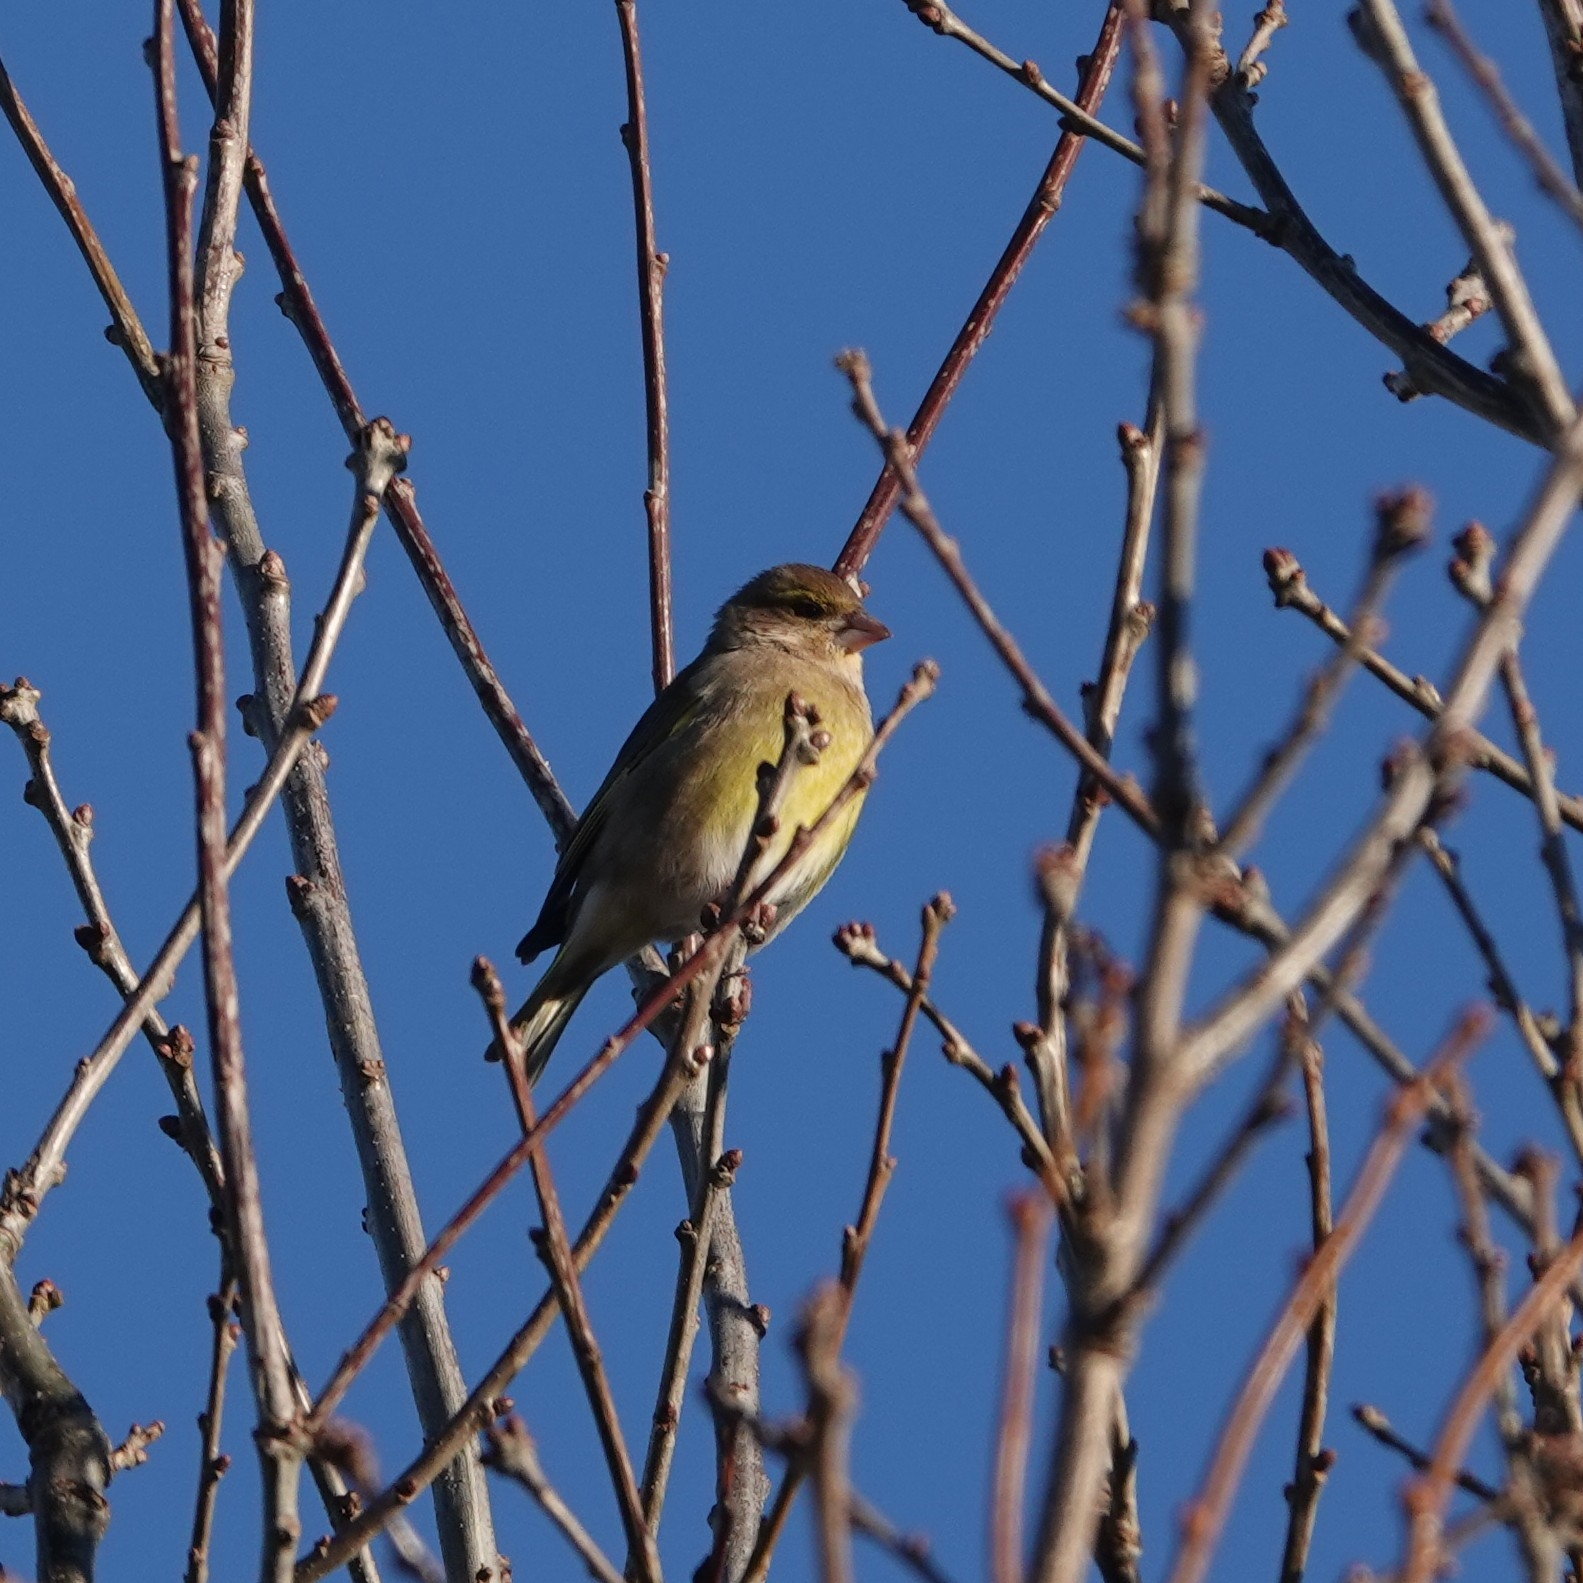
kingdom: Plantae
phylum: Tracheophyta
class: Liliopsida
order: Poales
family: Poaceae
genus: Chloris
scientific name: Chloris chloris
